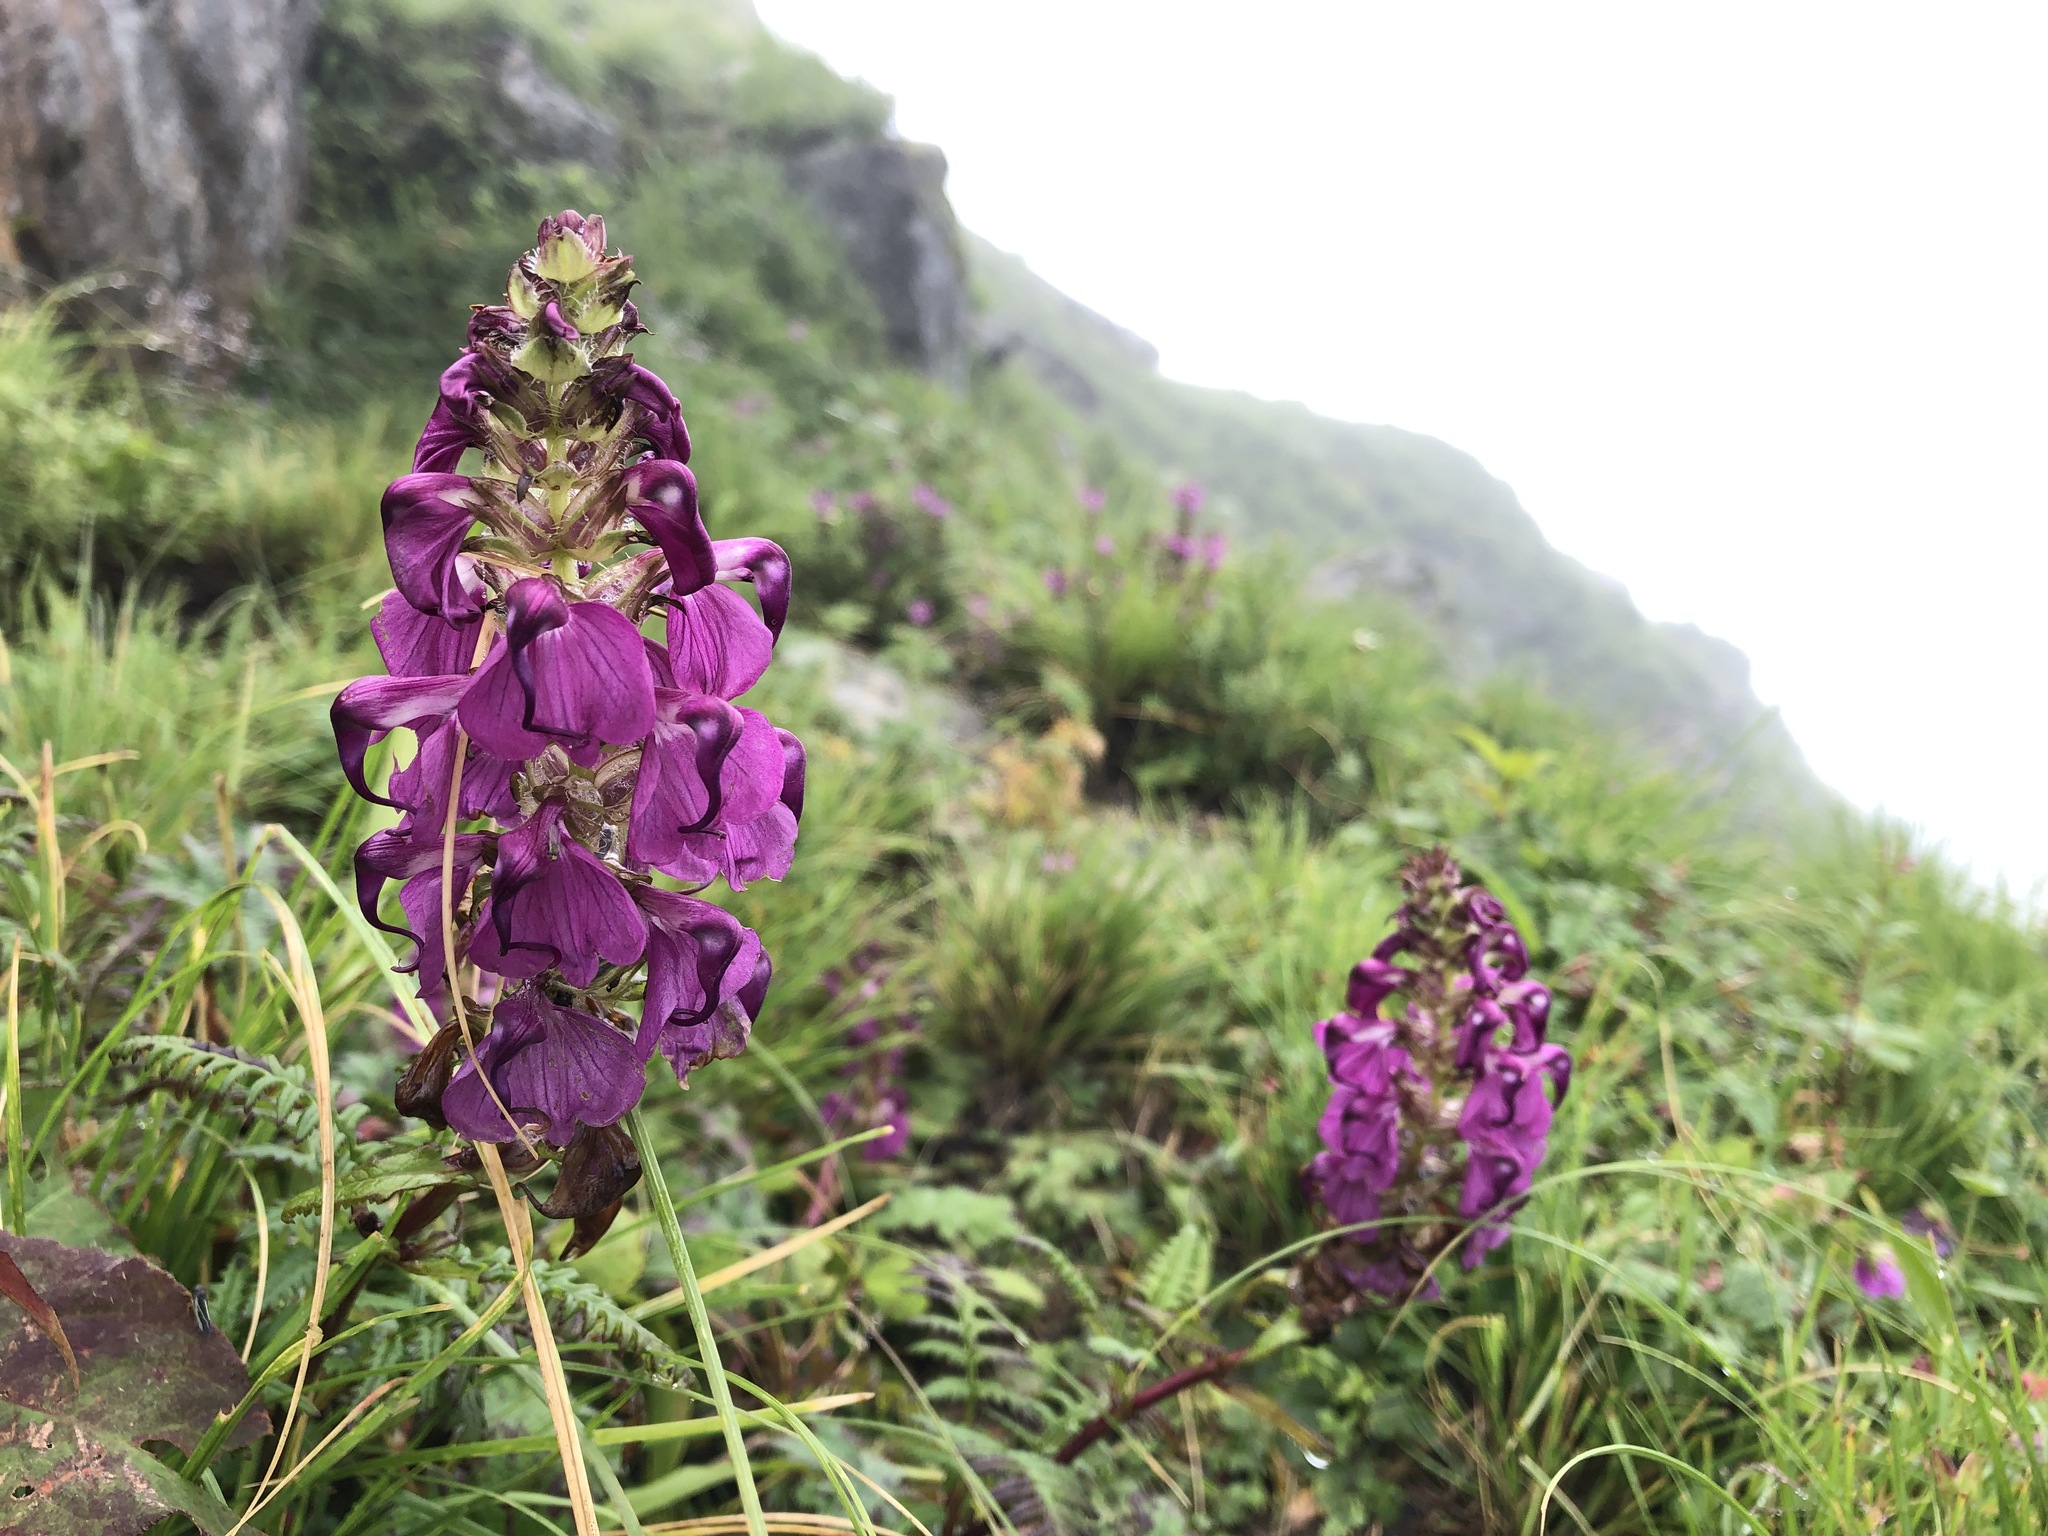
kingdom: Plantae
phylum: Tracheophyta
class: Magnoliopsida
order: Lamiales
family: Orobanchaceae
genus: Pedicularis
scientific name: Pedicularis pectinata
